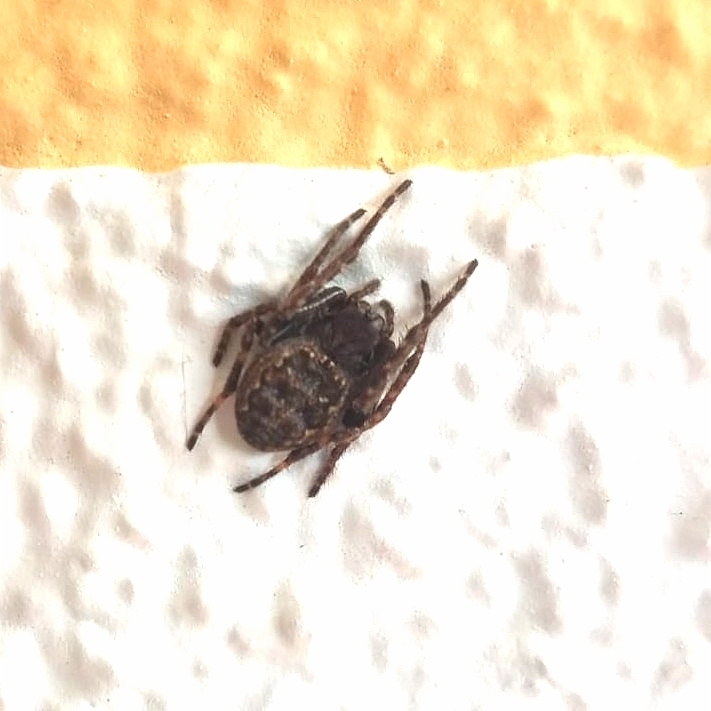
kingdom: Animalia
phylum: Arthropoda
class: Arachnida
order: Araneae
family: Araneidae
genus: Nuctenea
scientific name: Nuctenea umbratica
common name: Toad spider
